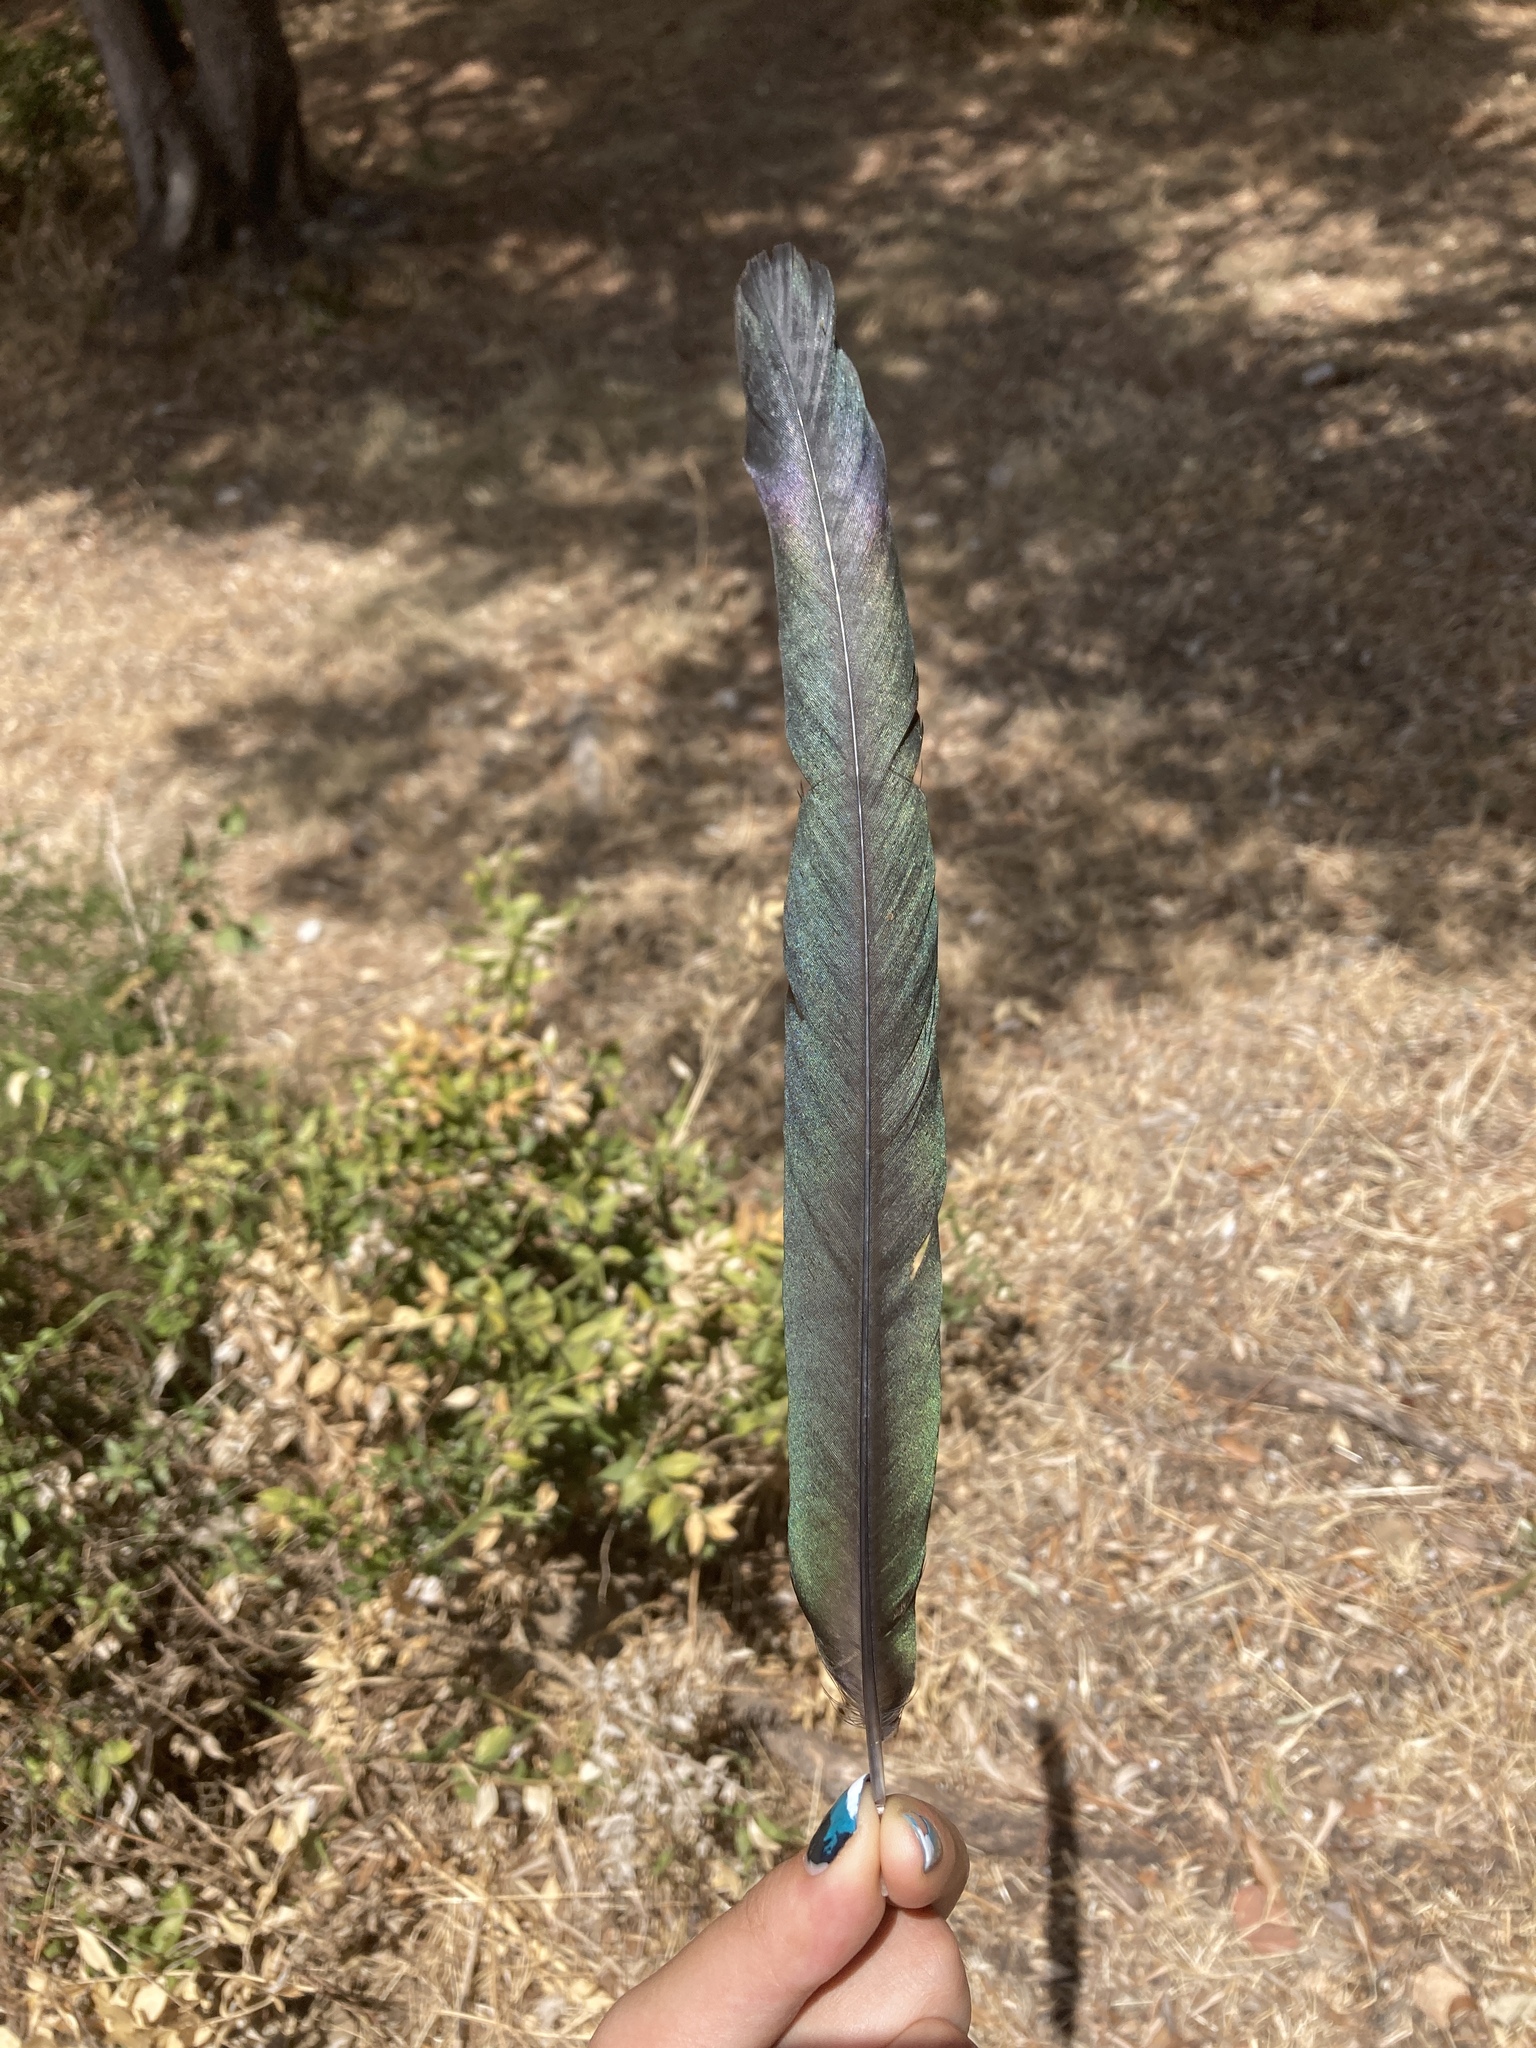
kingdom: Animalia
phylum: Chordata
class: Aves
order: Passeriformes
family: Corvidae
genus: Pica
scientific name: Pica pica
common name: Eurasian magpie
